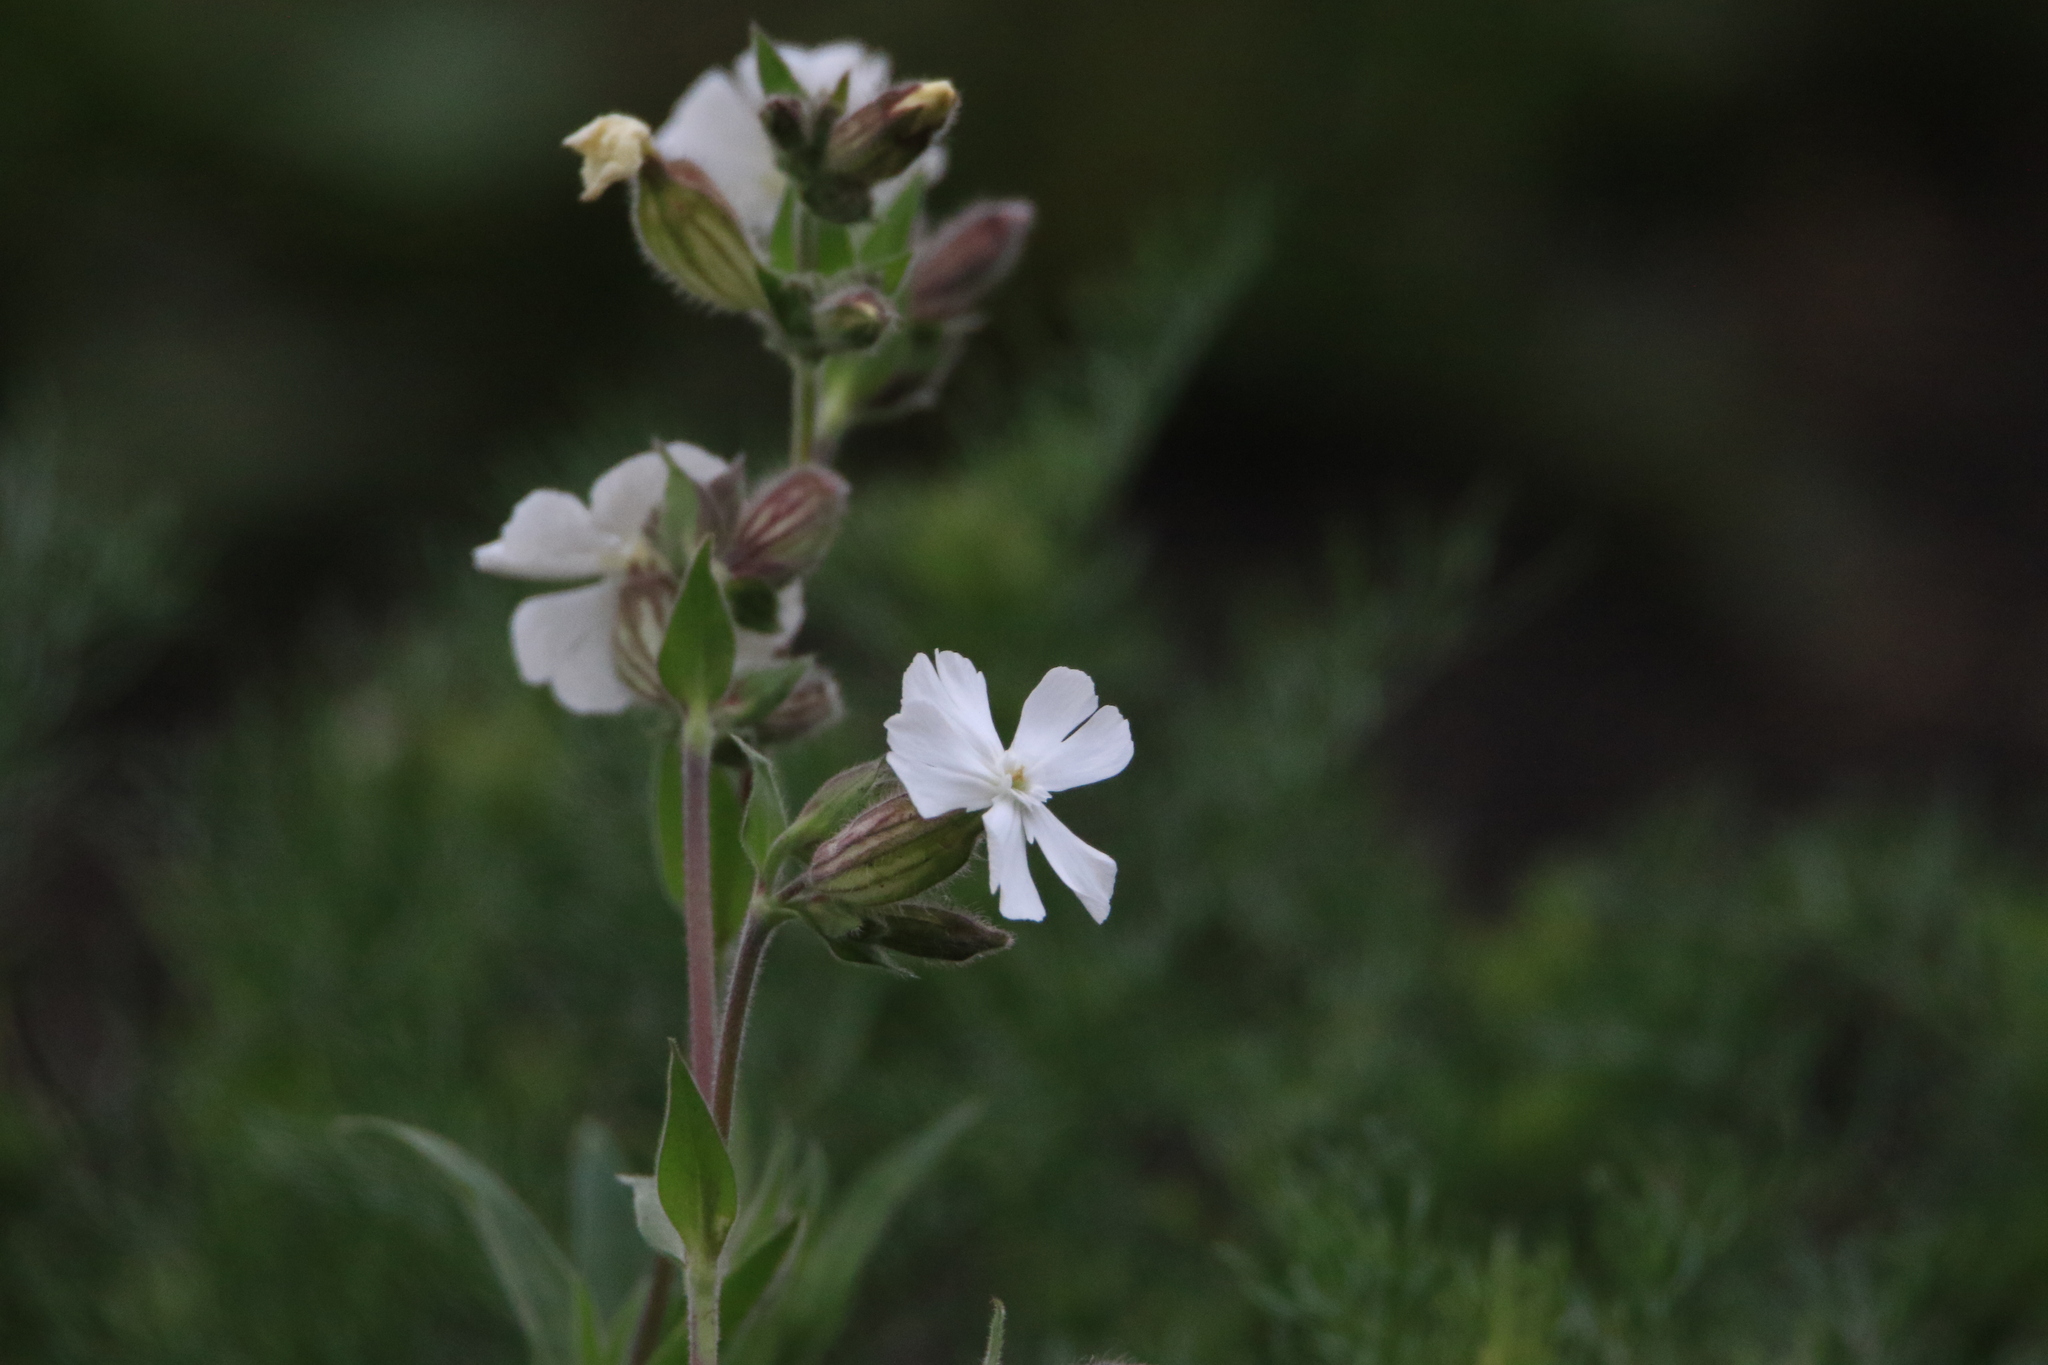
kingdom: Plantae
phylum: Tracheophyta
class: Magnoliopsida
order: Caryophyllales
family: Caryophyllaceae
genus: Silene
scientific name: Silene latifolia
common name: White campion
